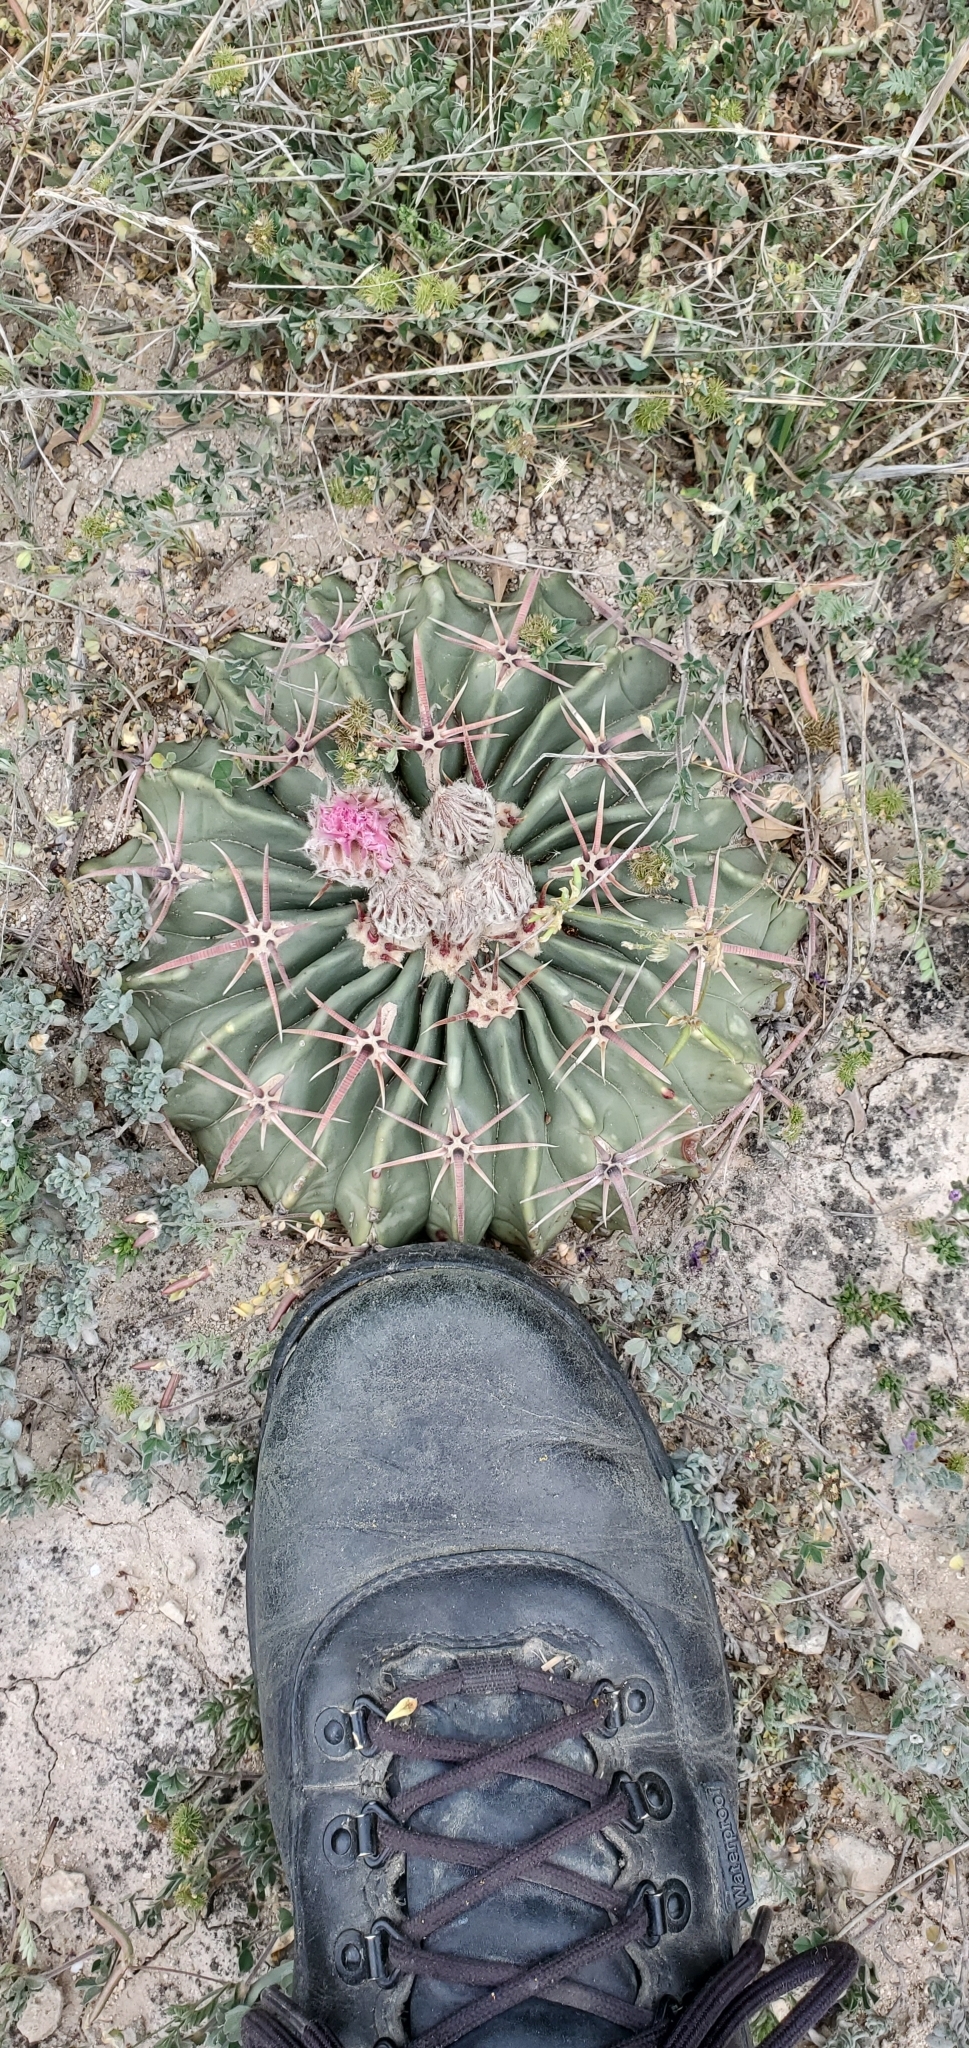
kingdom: Plantae
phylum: Tracheophyta
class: Magnoliopsida
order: Caryophyllales
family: Cactaceae
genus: Echinocactus
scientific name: Echinocactus texensis
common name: Devil's pincushion
